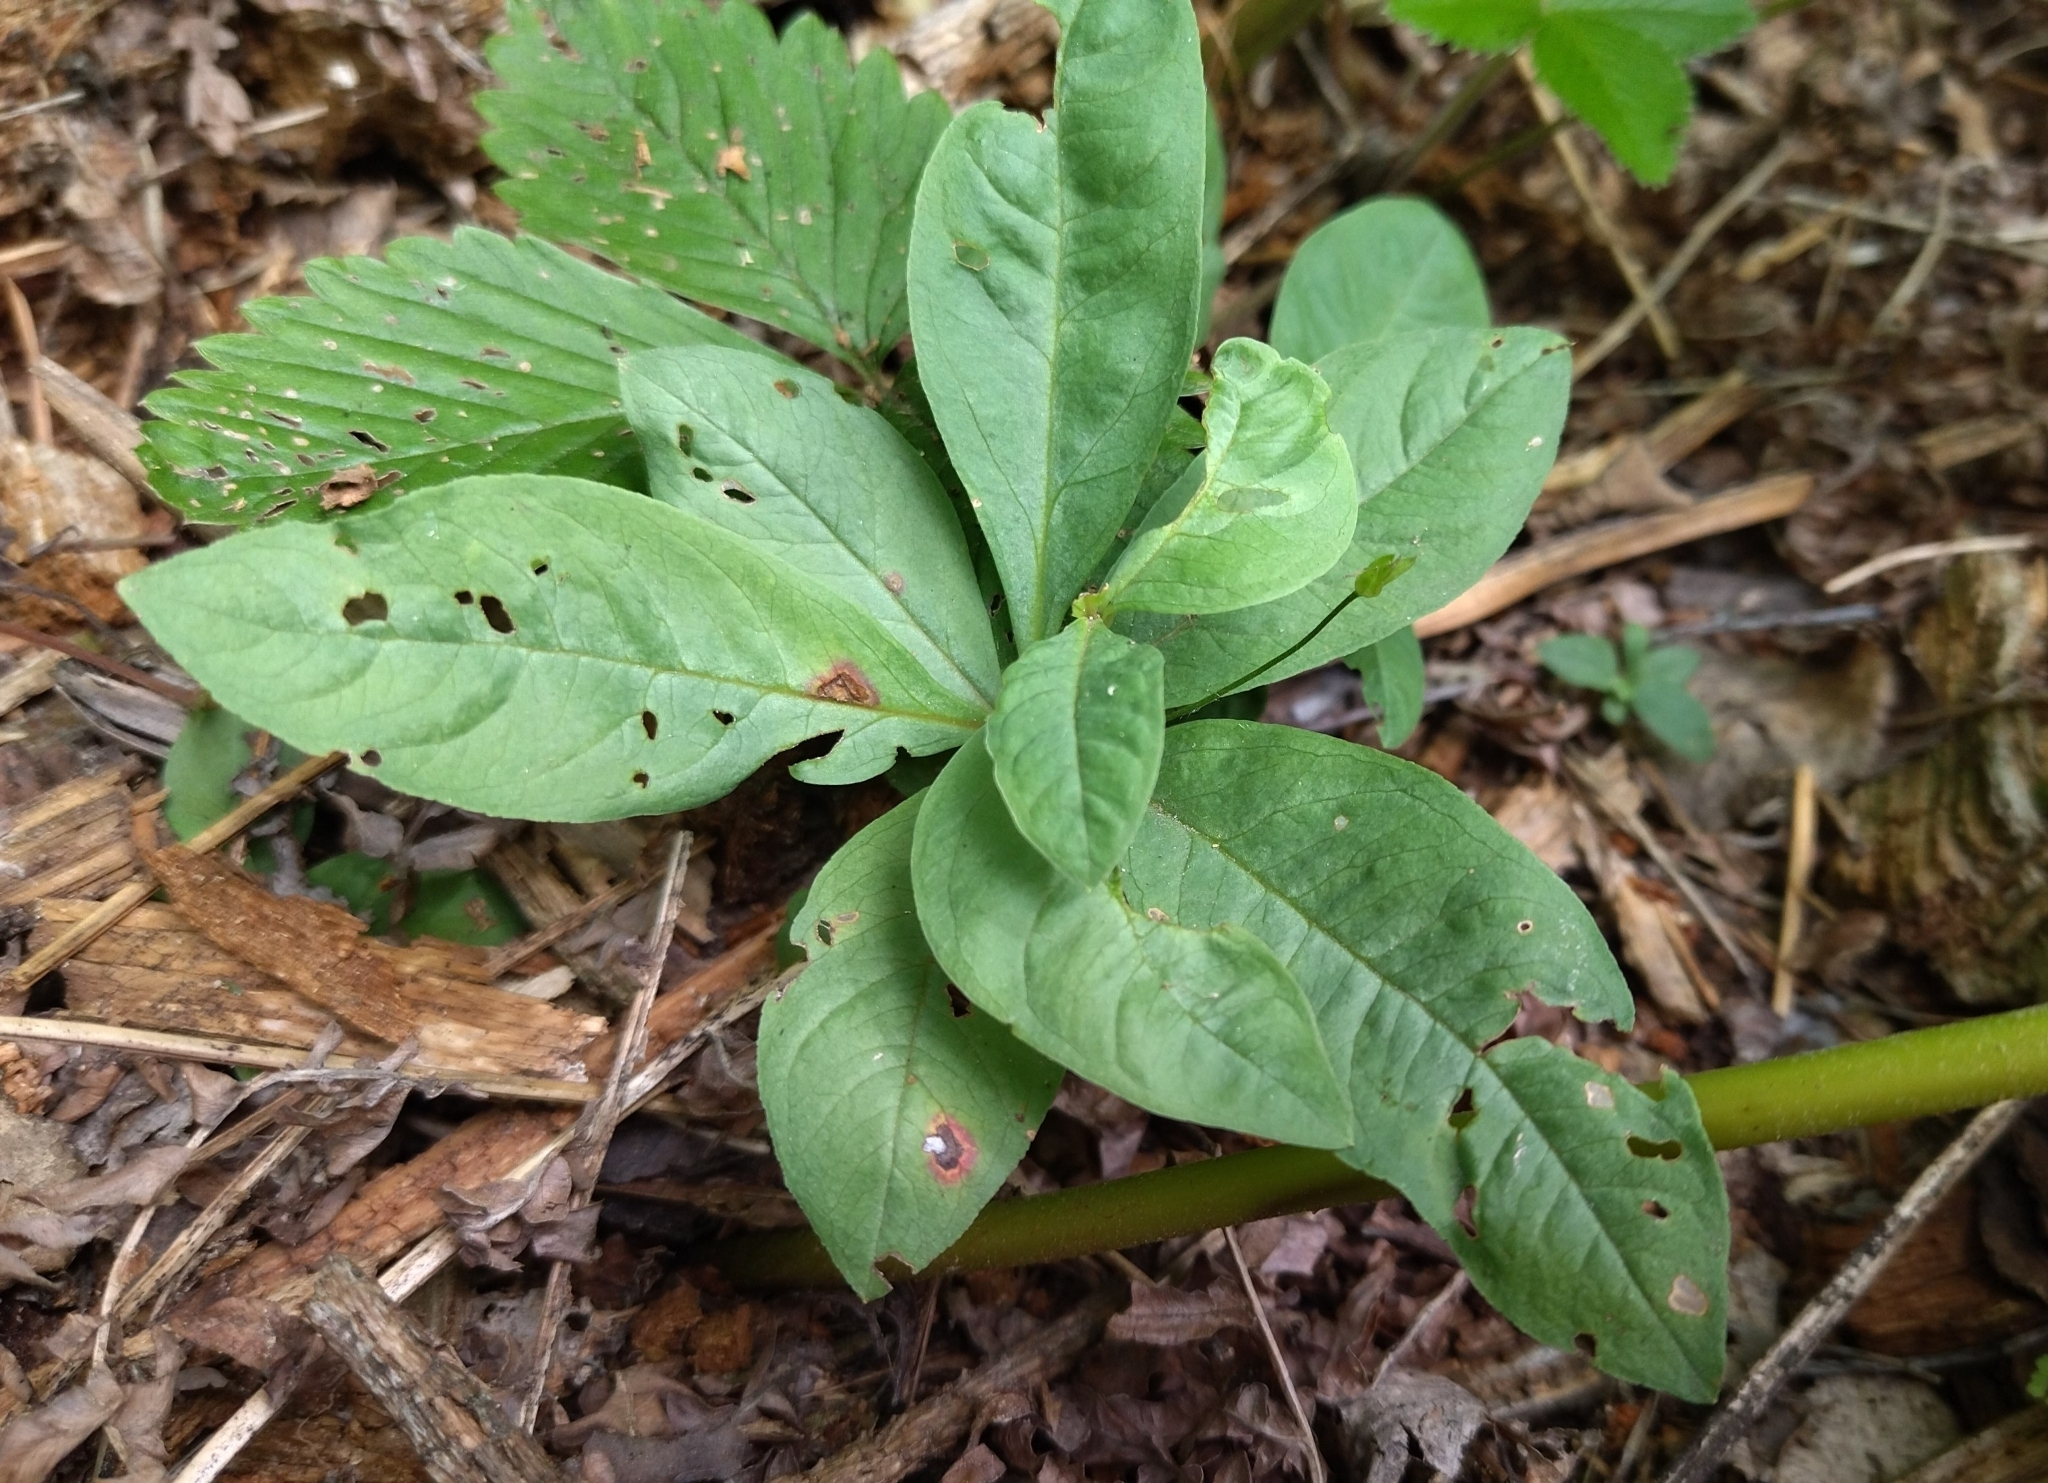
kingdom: Plantae
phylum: Tracheophyta
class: Magnoliopsida
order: Ericales
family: Primulaceae
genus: Lysimachia
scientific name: Lysimachia europaea
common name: Arctic starflower
